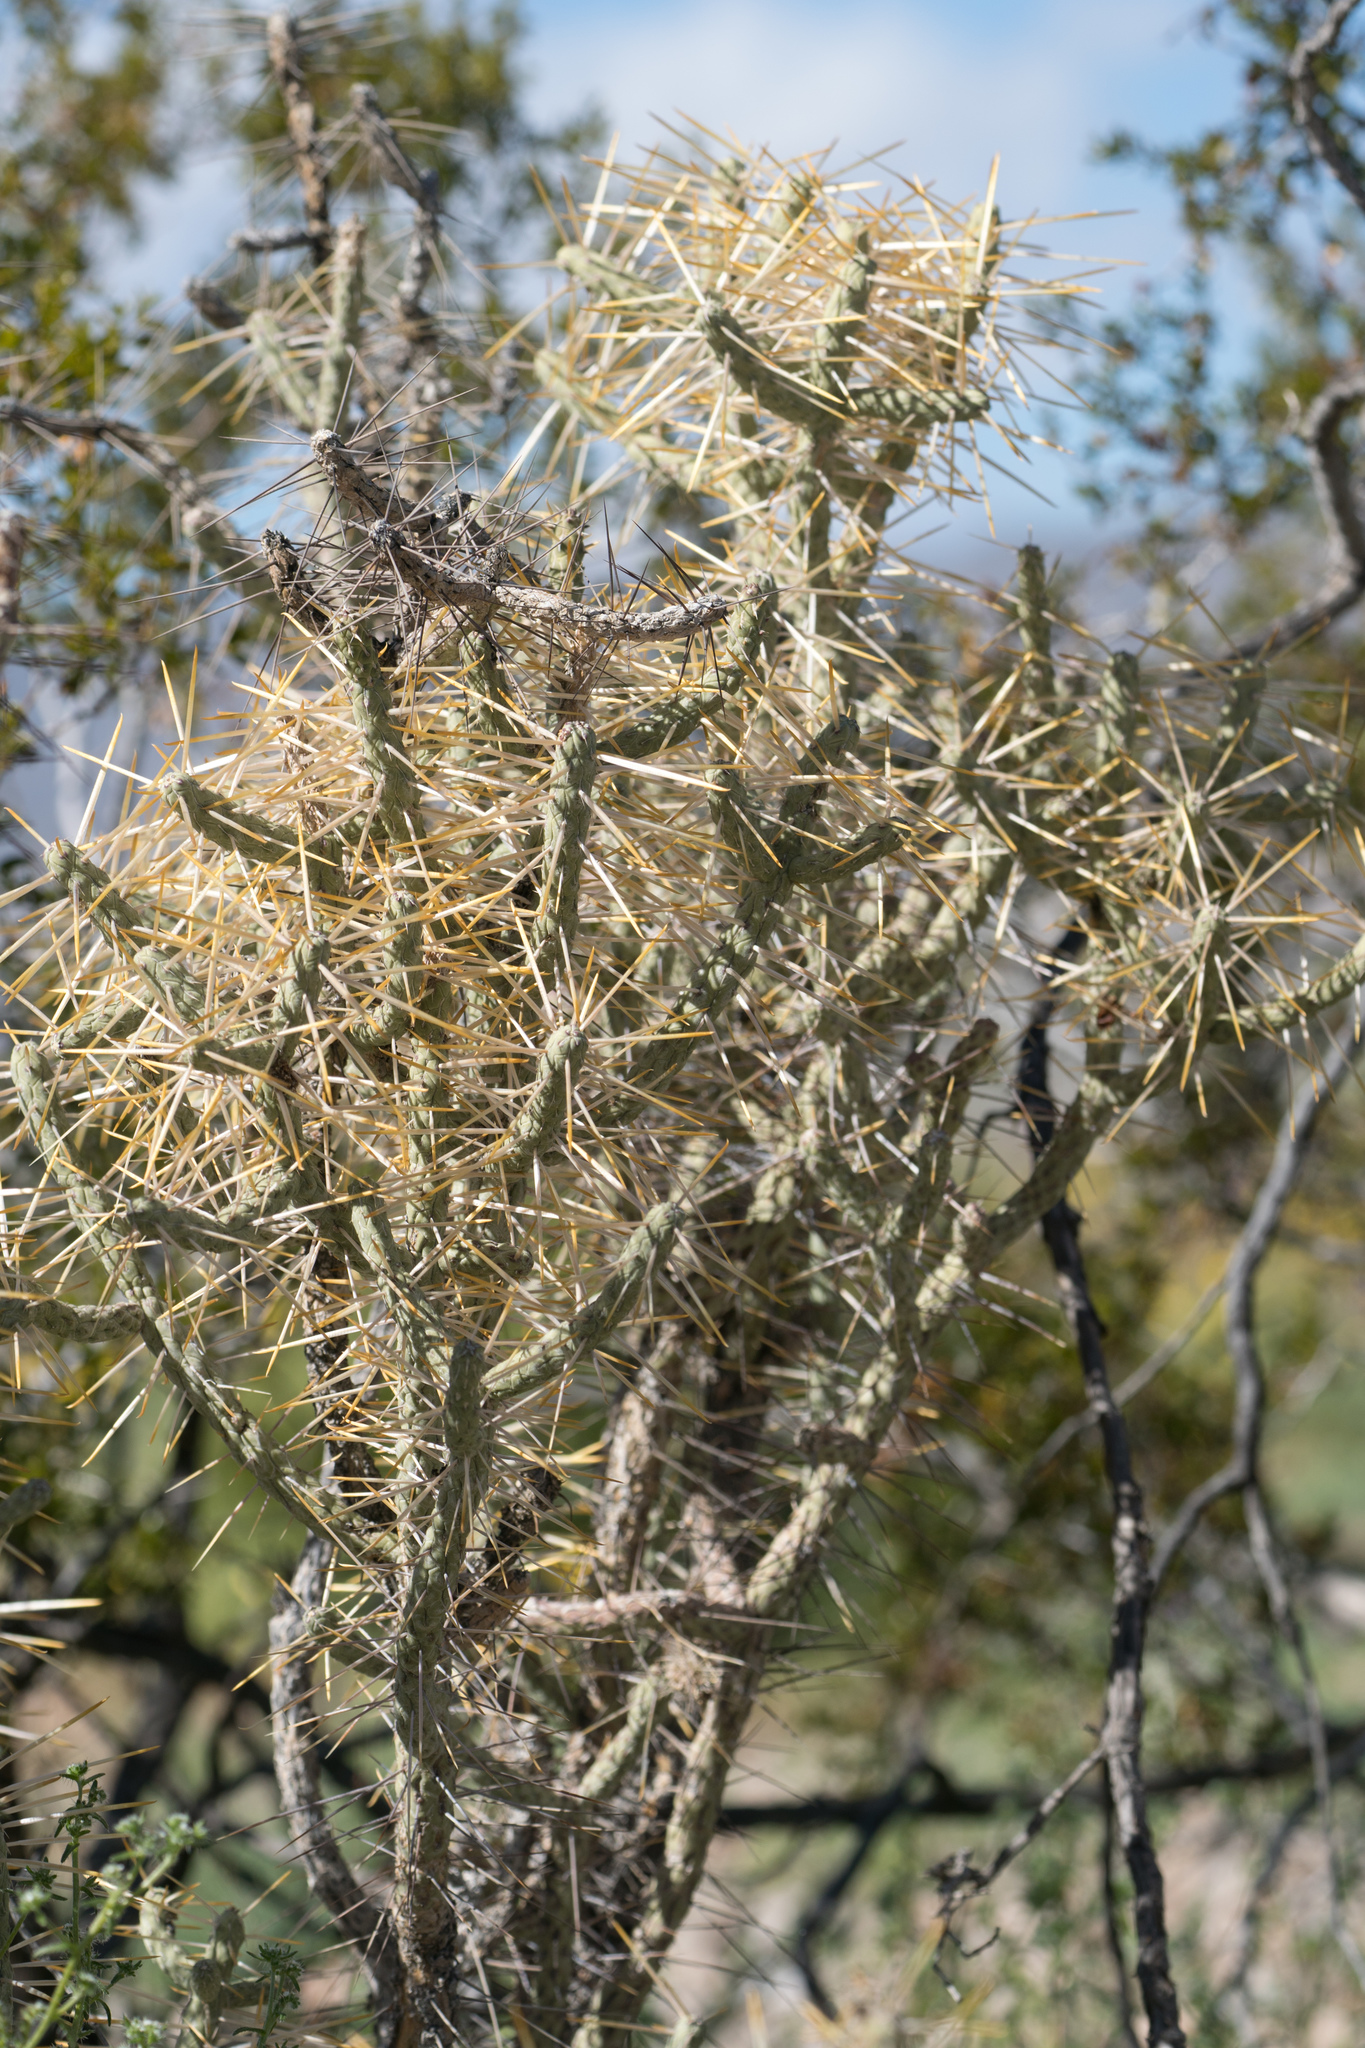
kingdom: Plantae
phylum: Tracheophyta
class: Magnoliopsida
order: Caryophyllales
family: Cactaceae
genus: Cylindropuntia
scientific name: Cylindropuntia ramosissima
